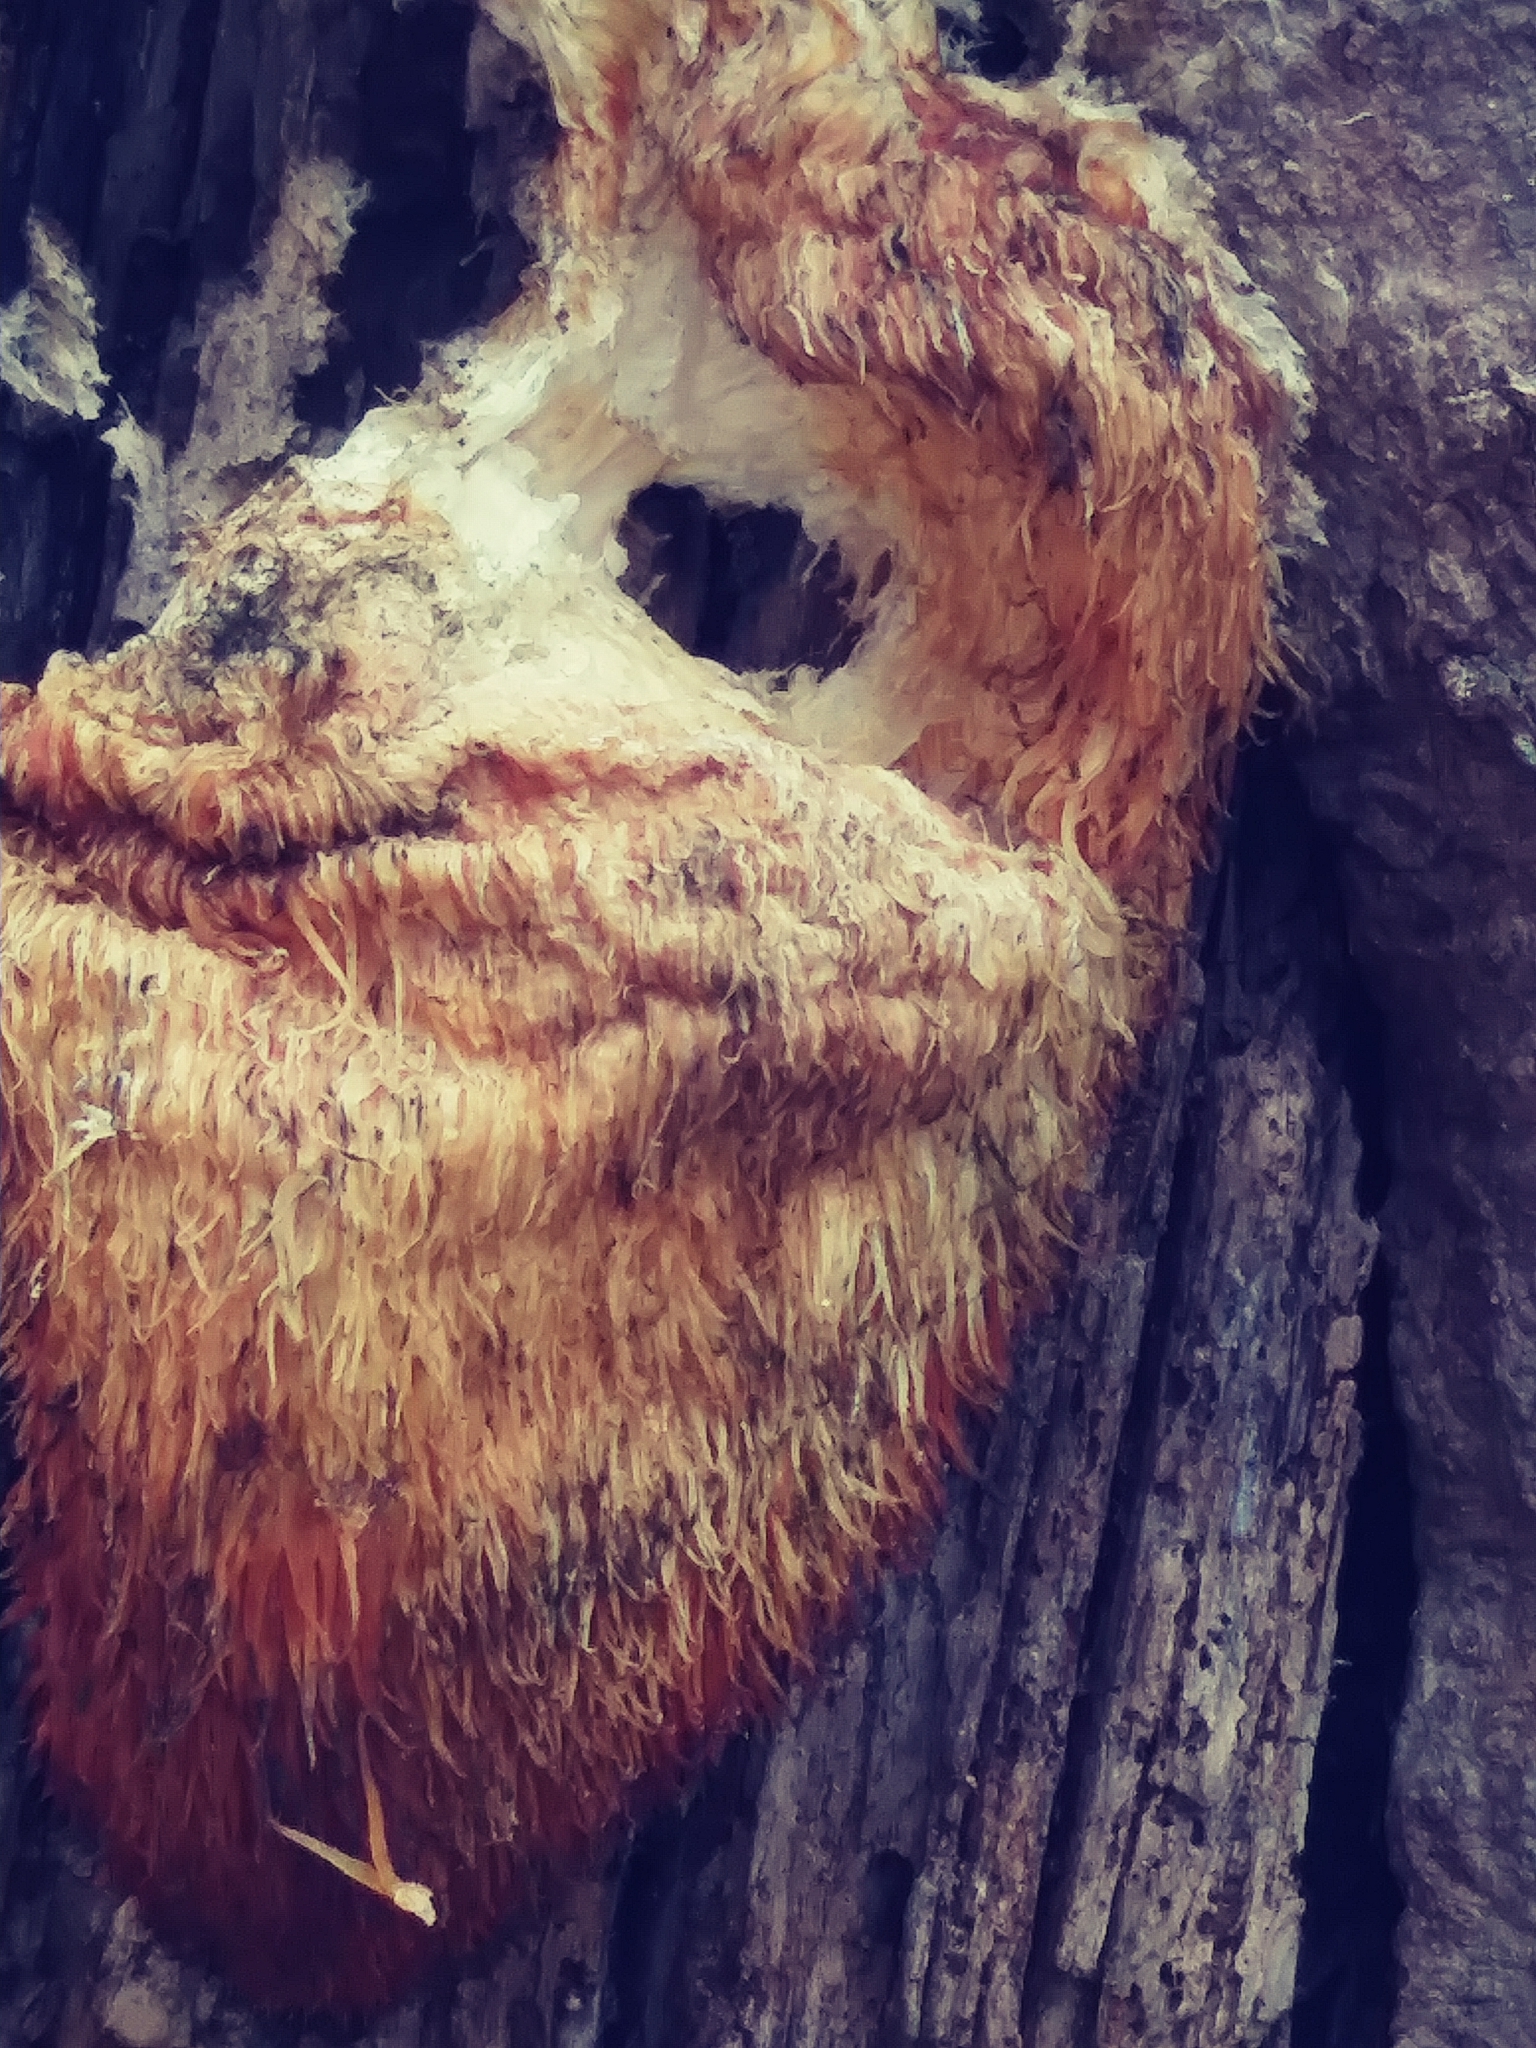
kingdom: Fungi
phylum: Basidiomycota
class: Agaricomycetes
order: Russulales
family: Hericiaceae
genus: Hericium
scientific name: Hericium erinaceus
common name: Bearded tooth
